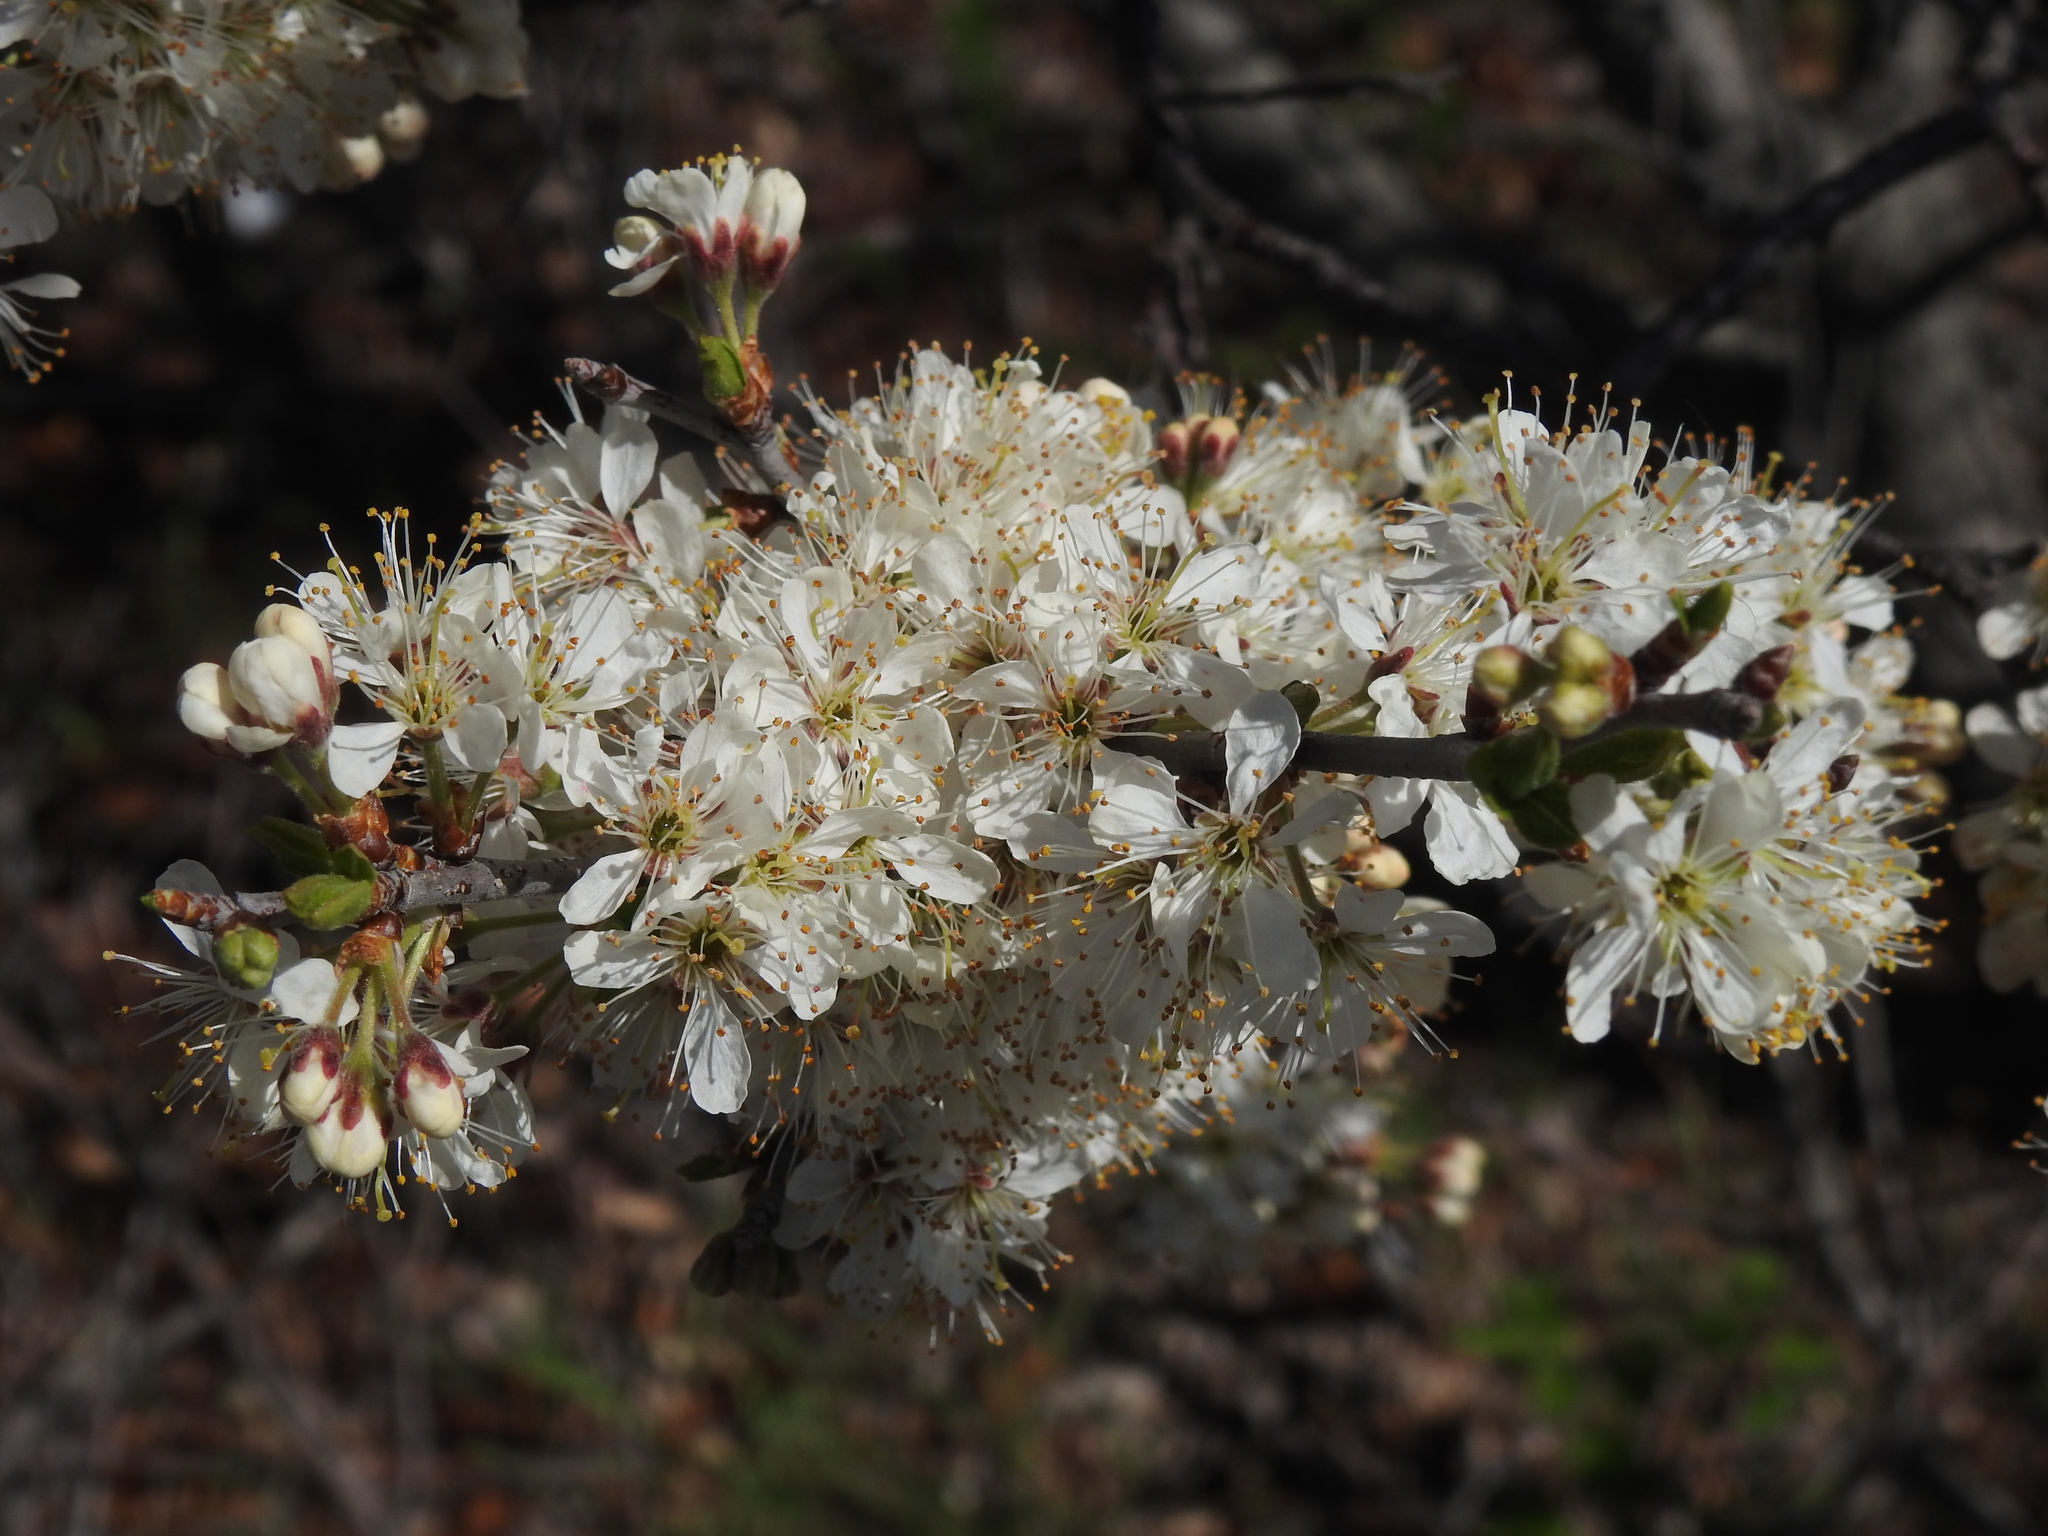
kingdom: Plantae
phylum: Tracheophyta
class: Magnoliopsida
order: Rosales
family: Rosaceae
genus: Prunus
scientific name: Prunus maritima
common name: Beach plum
